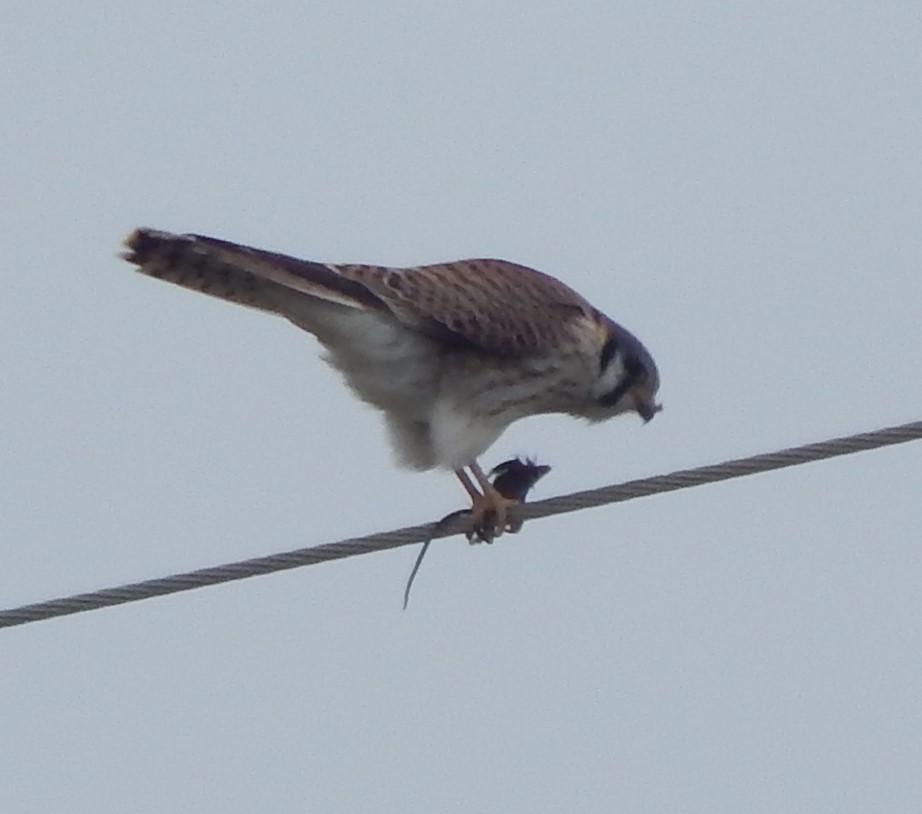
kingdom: Animalia
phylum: Chordata
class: Aves
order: Falconiformes
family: Falconidae
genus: Falco
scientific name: Falco sparverius
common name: American kestrel
